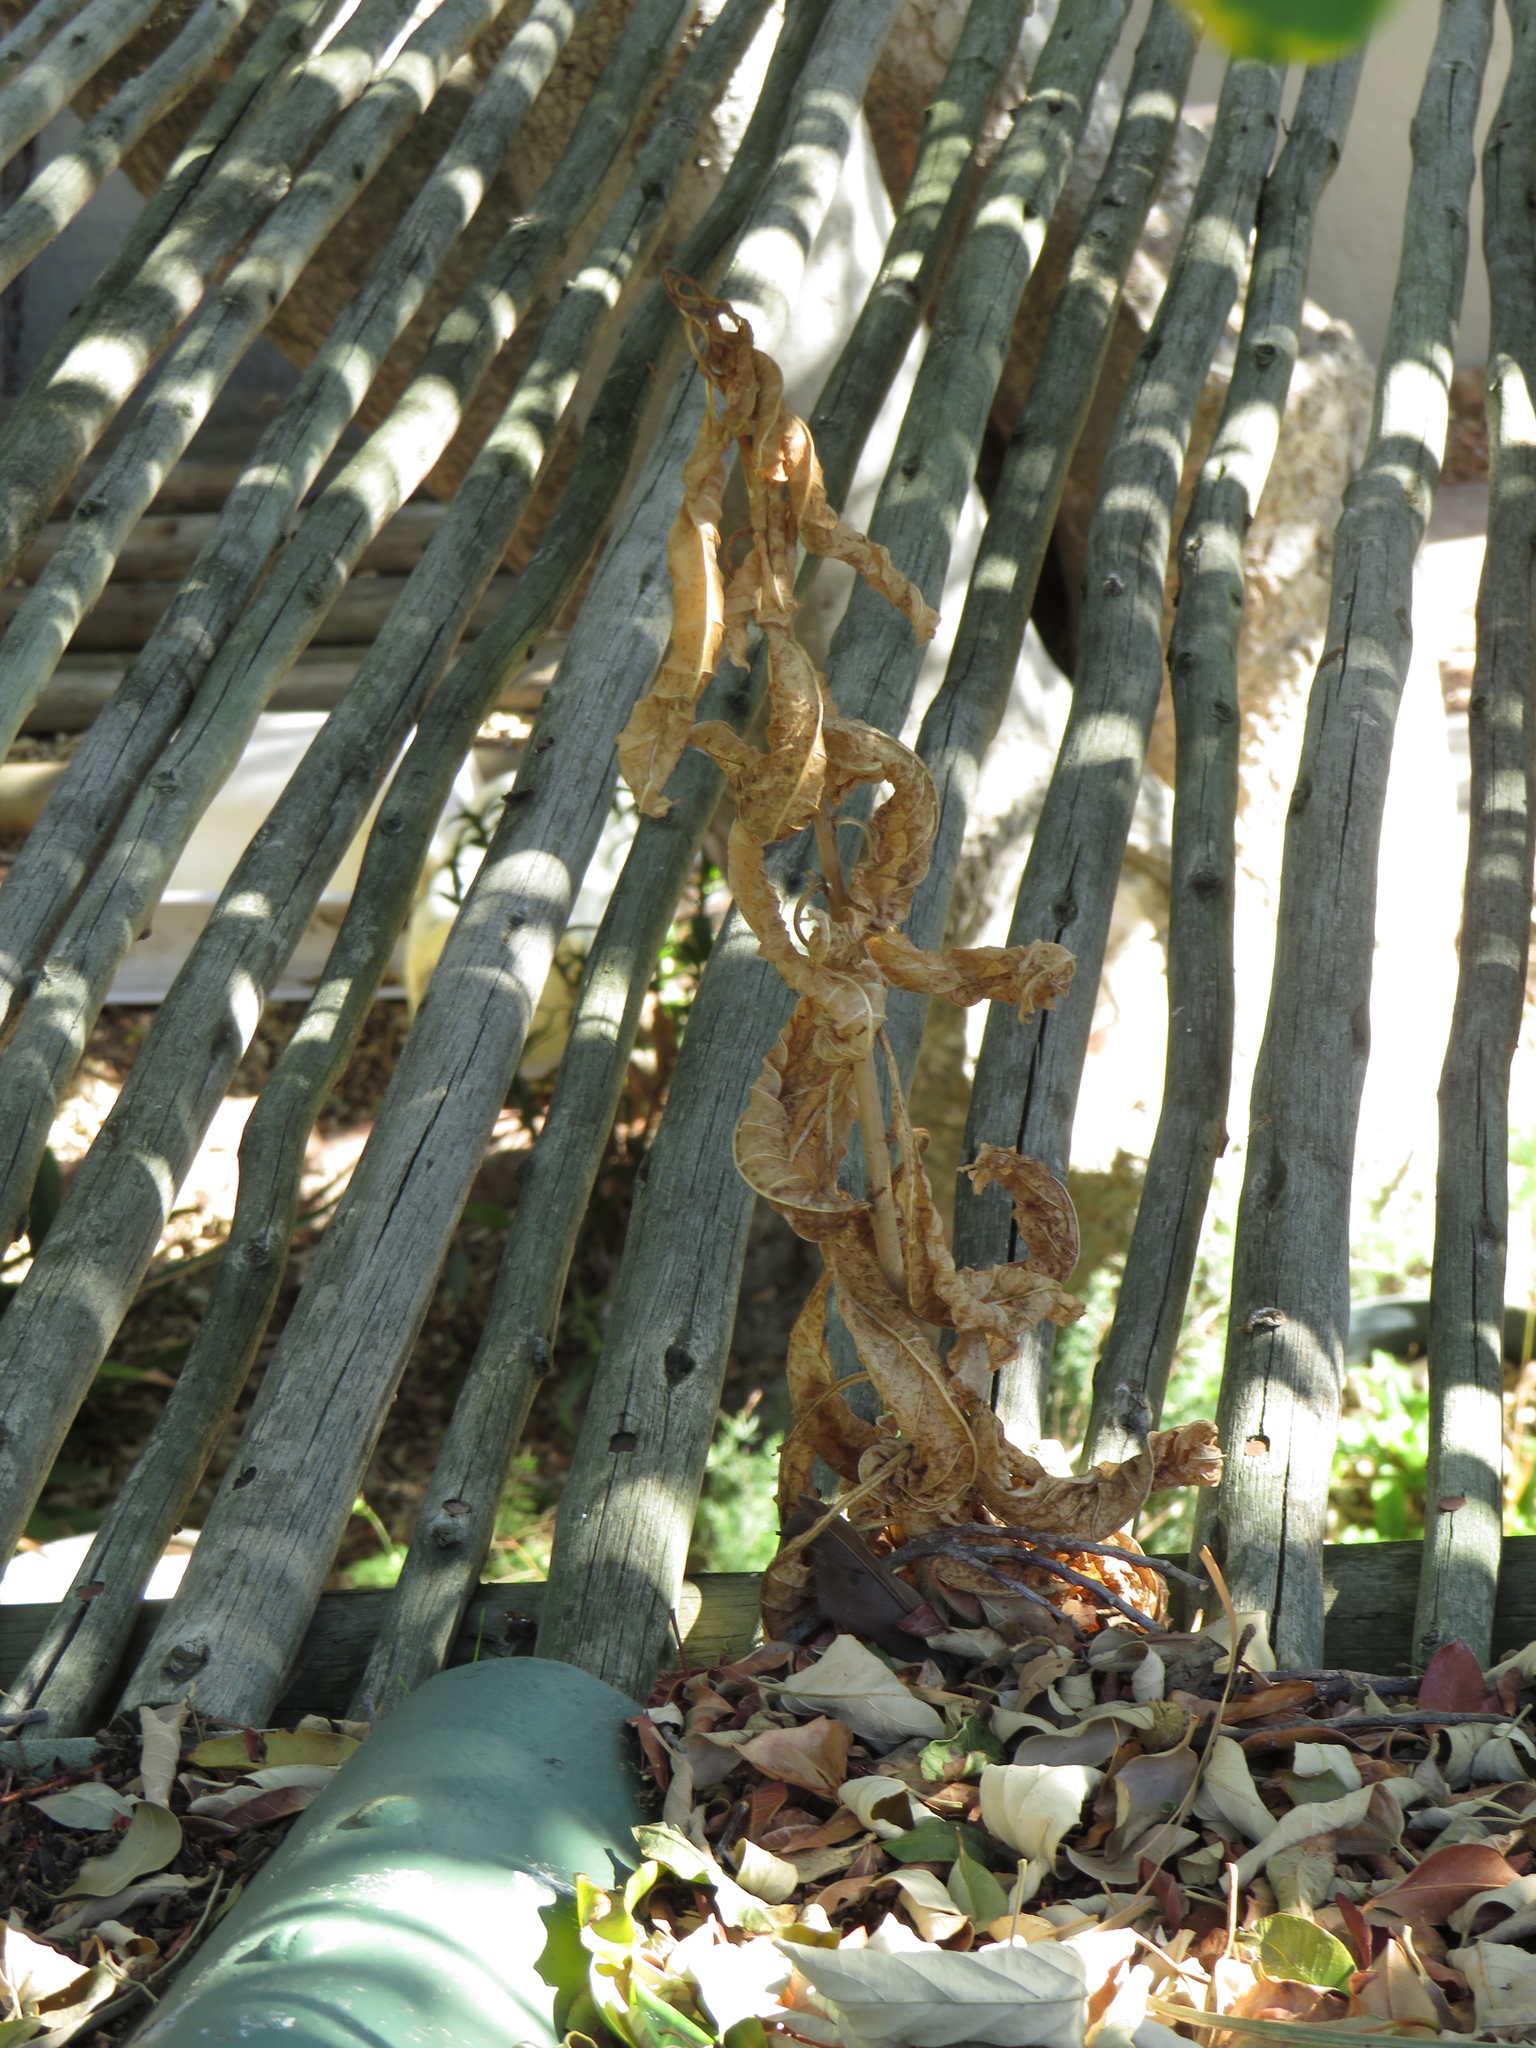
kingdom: Plantae
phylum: Tracheophyta
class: Magnoliopsida
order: Asterales
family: Asteraceae
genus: Lactuca
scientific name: Lactuca serriola
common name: Prickly lettuce
